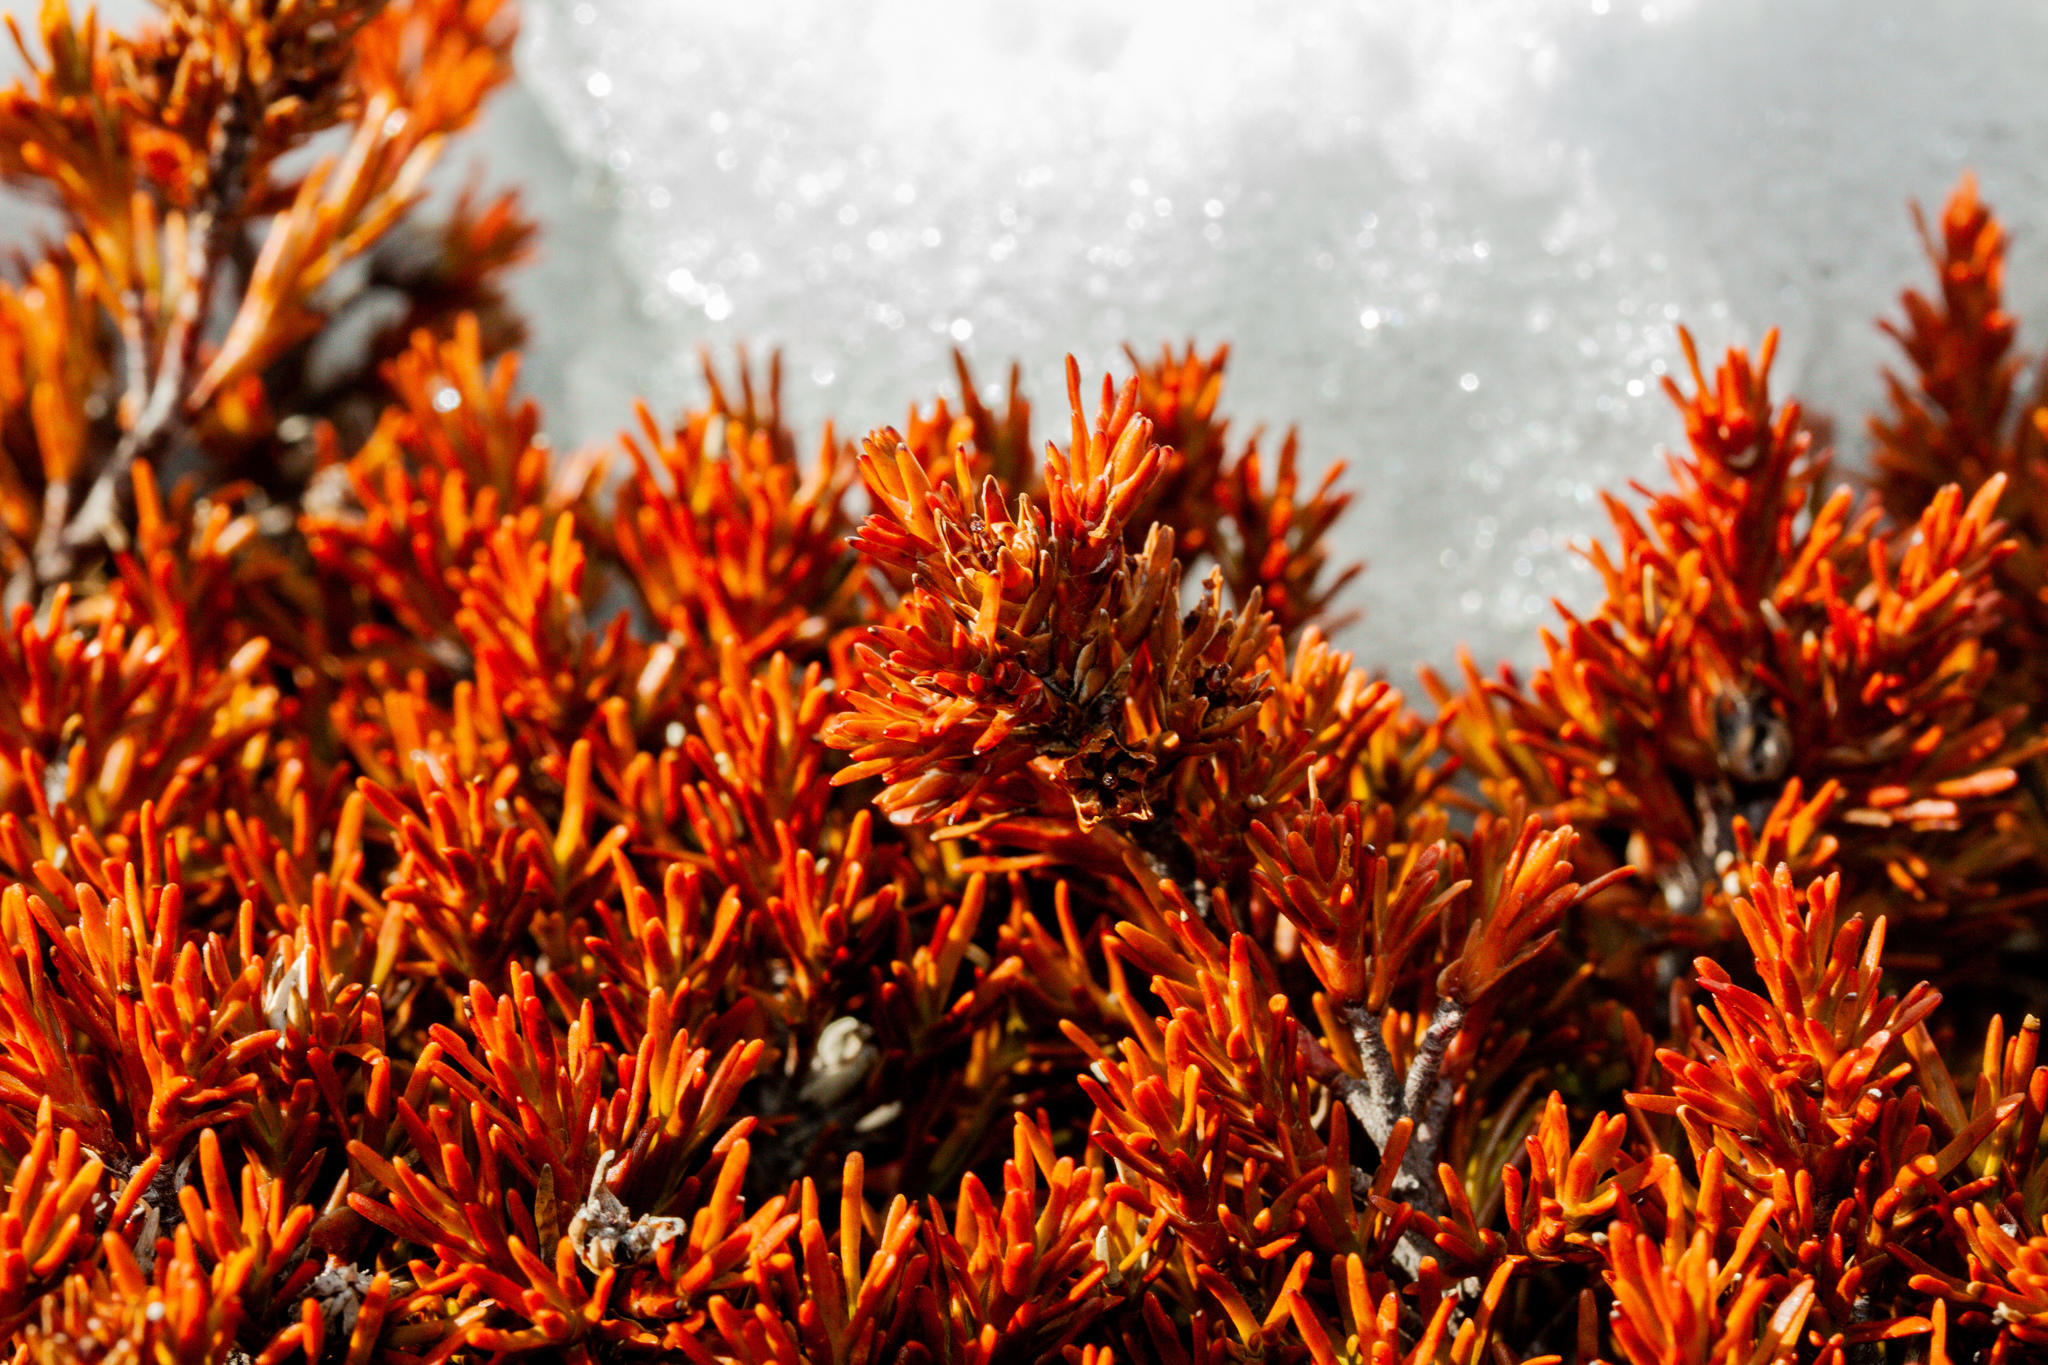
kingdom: Plantae
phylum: Tracheophyta
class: Magnoliopsida
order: Ericales
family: Ericaceae
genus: Dracophyllum
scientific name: Dracophyllum pronum
